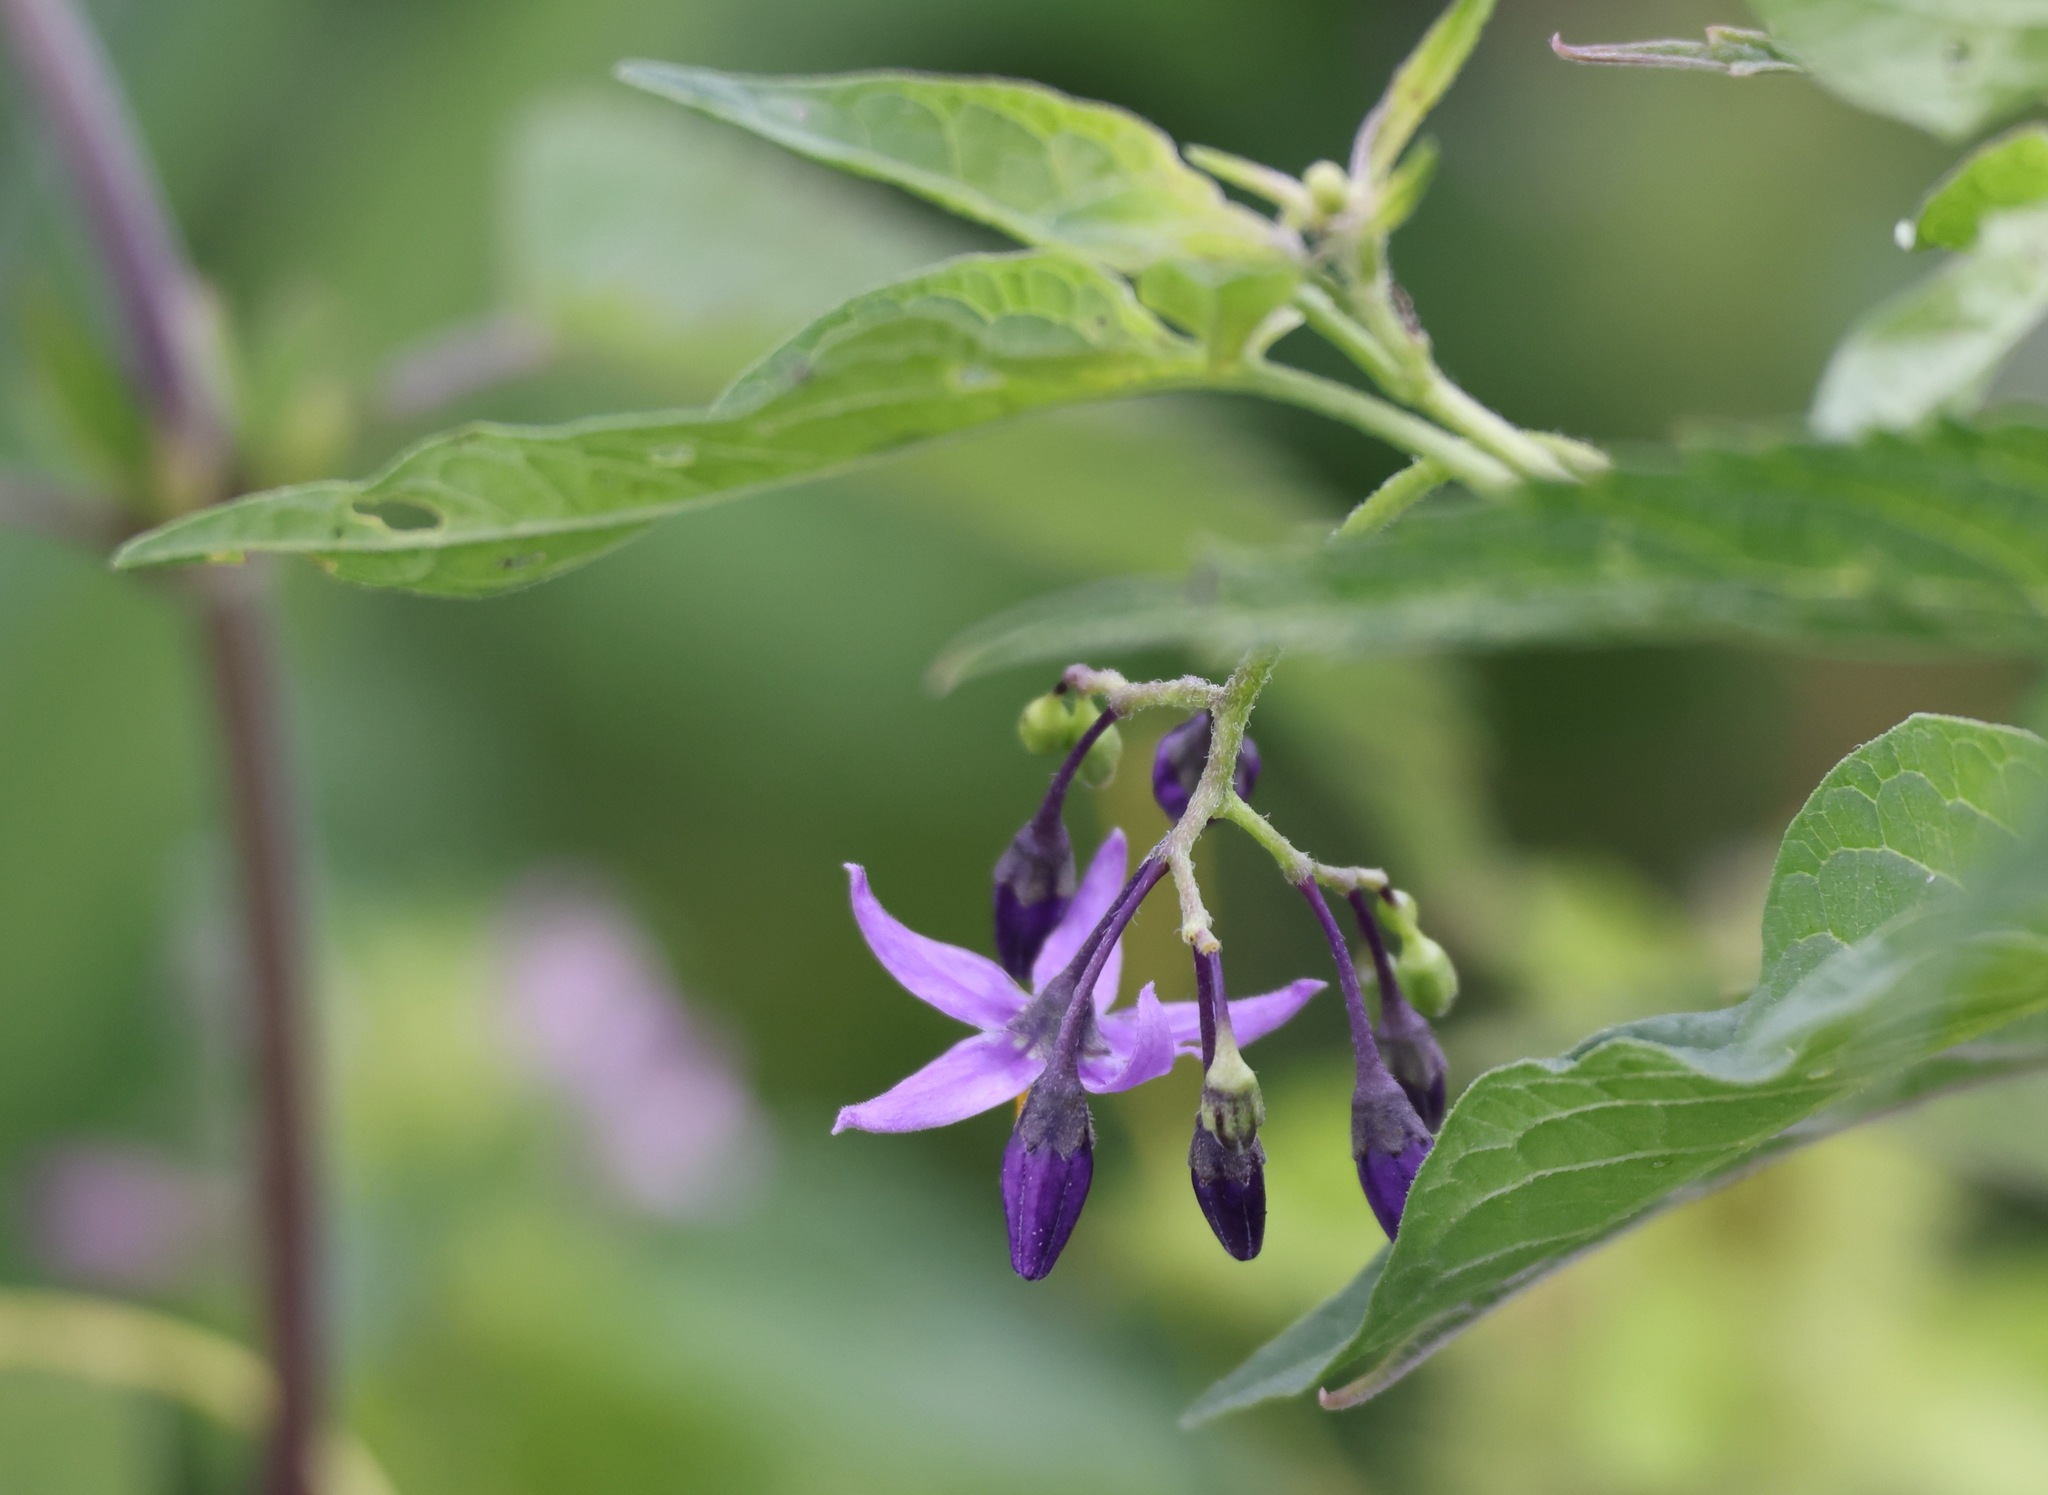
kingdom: Plantae
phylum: Tracheophyta
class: Magnoliopsida
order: Solanales
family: Solanaceae
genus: Solanum
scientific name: Solanum dulcamara
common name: Climbing nightshade
